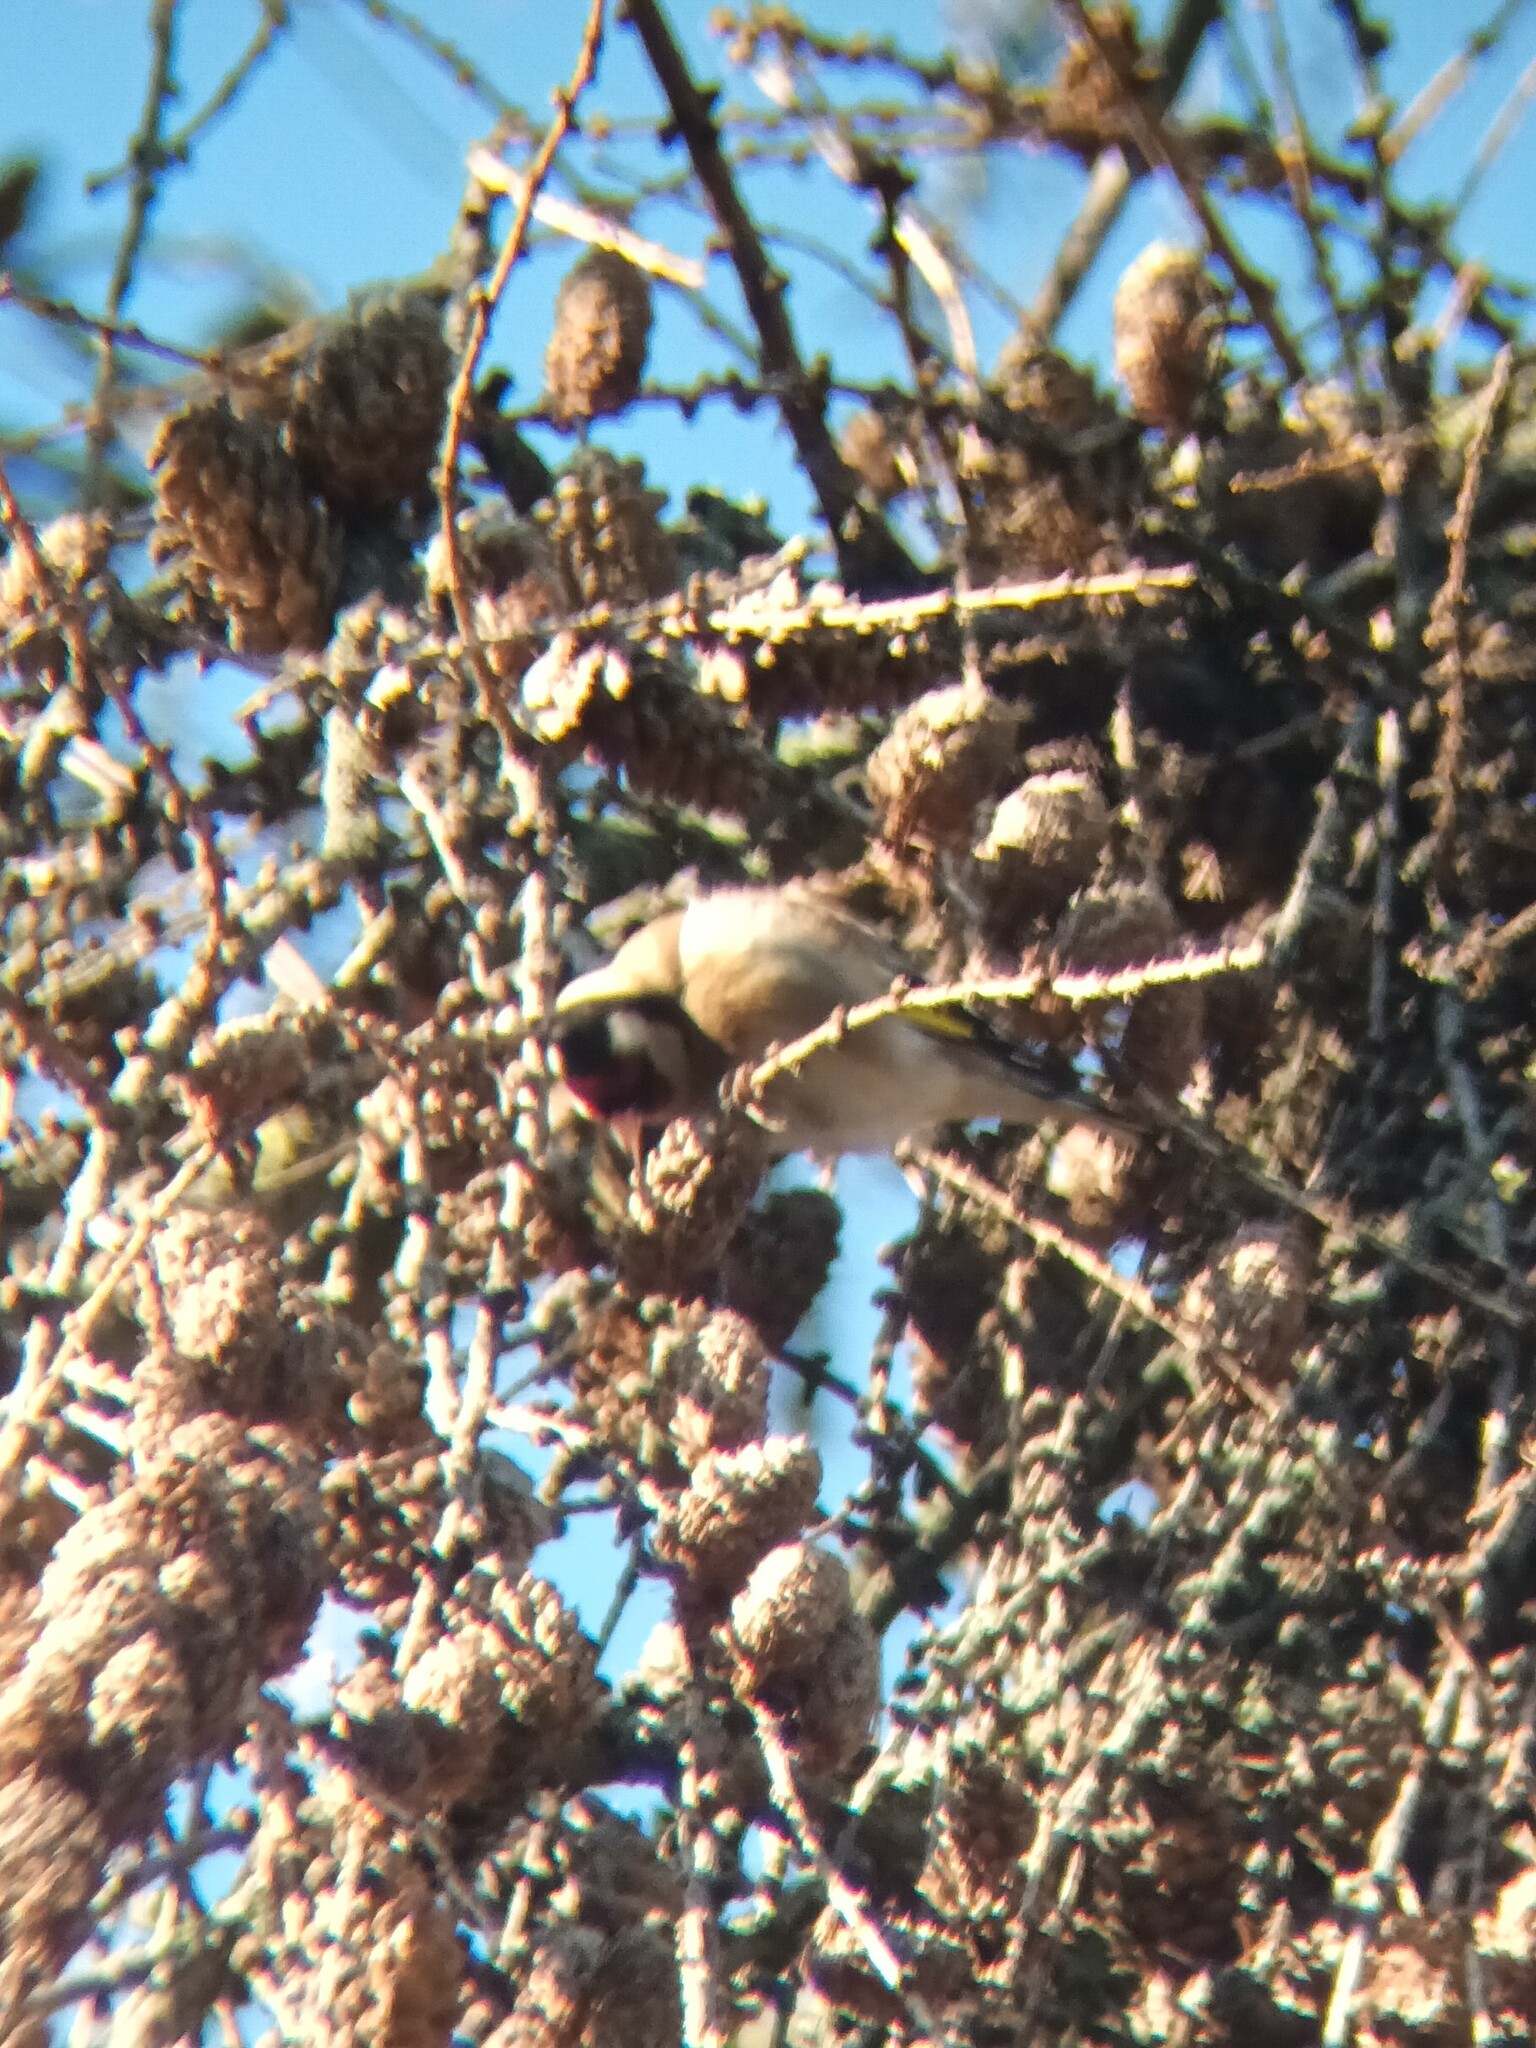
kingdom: Animalia
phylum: Chordata
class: Aves
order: Passeriformes
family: Fringillidae
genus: Carduelis
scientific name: Carduelis carduelis
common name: European goldfinch
